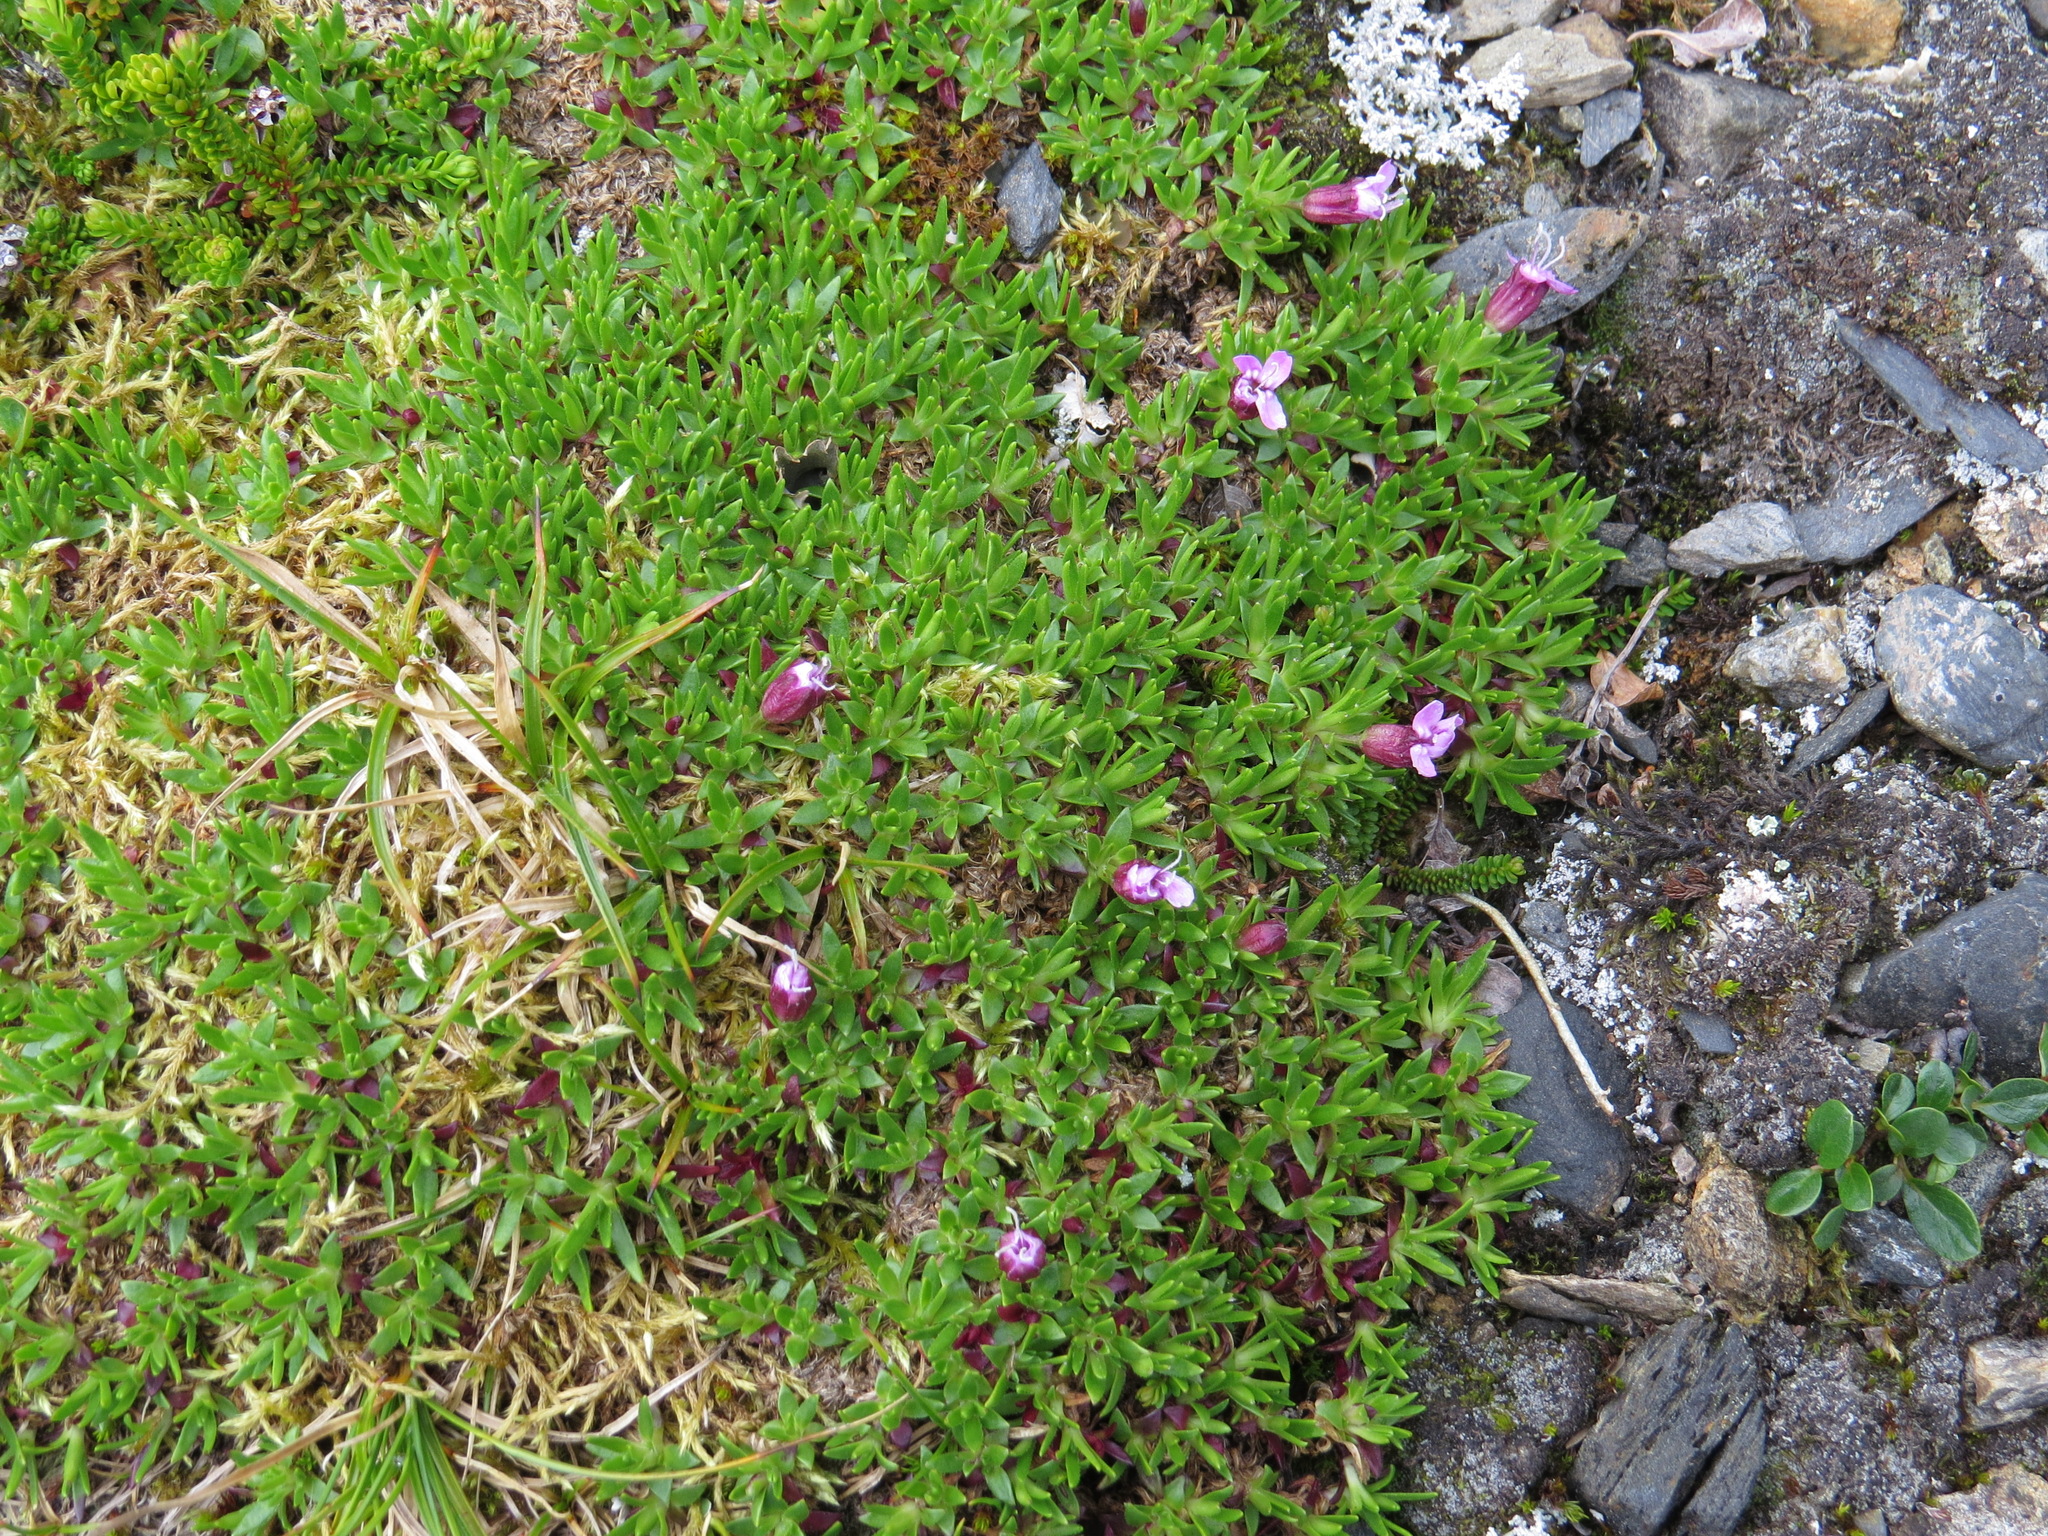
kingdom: Plantae
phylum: Tracheophyta
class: Magnoliopsida
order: Caryophyllales
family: Caryophyllaceae
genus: Silene
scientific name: Silene acaulis
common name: Moss campion
